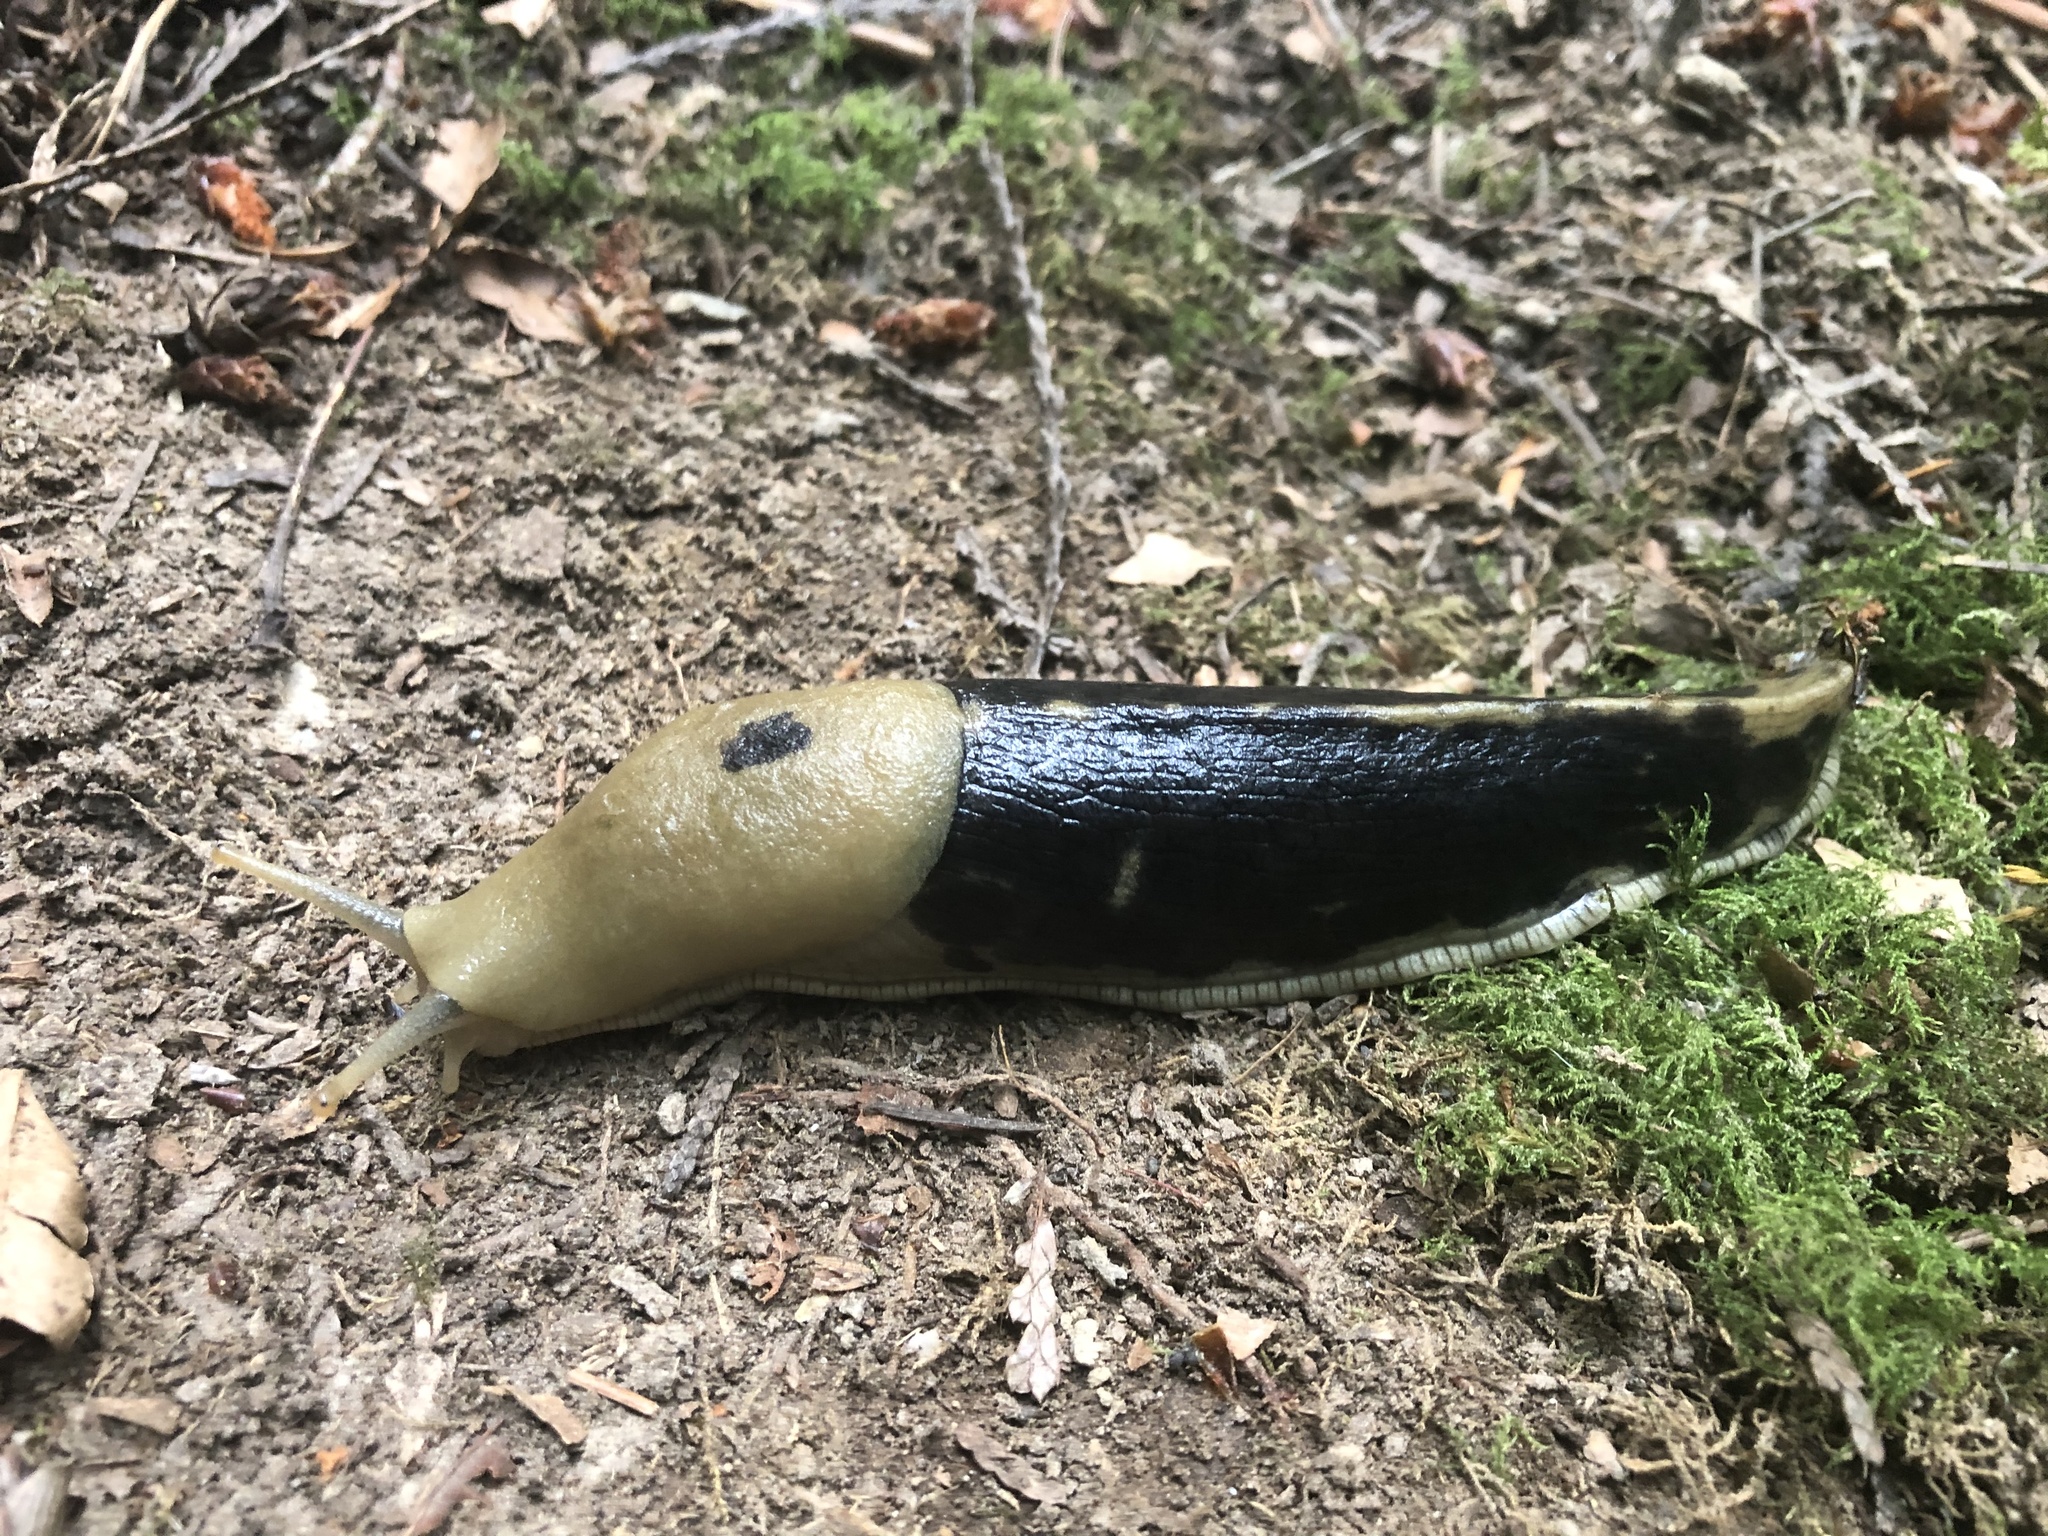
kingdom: Animalia
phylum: Mollusca
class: Gastropoda
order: Stylommatophora
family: Ariolimacidae
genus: Ariolimax
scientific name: Ariolimax columbianus
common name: Pacific banana slug
